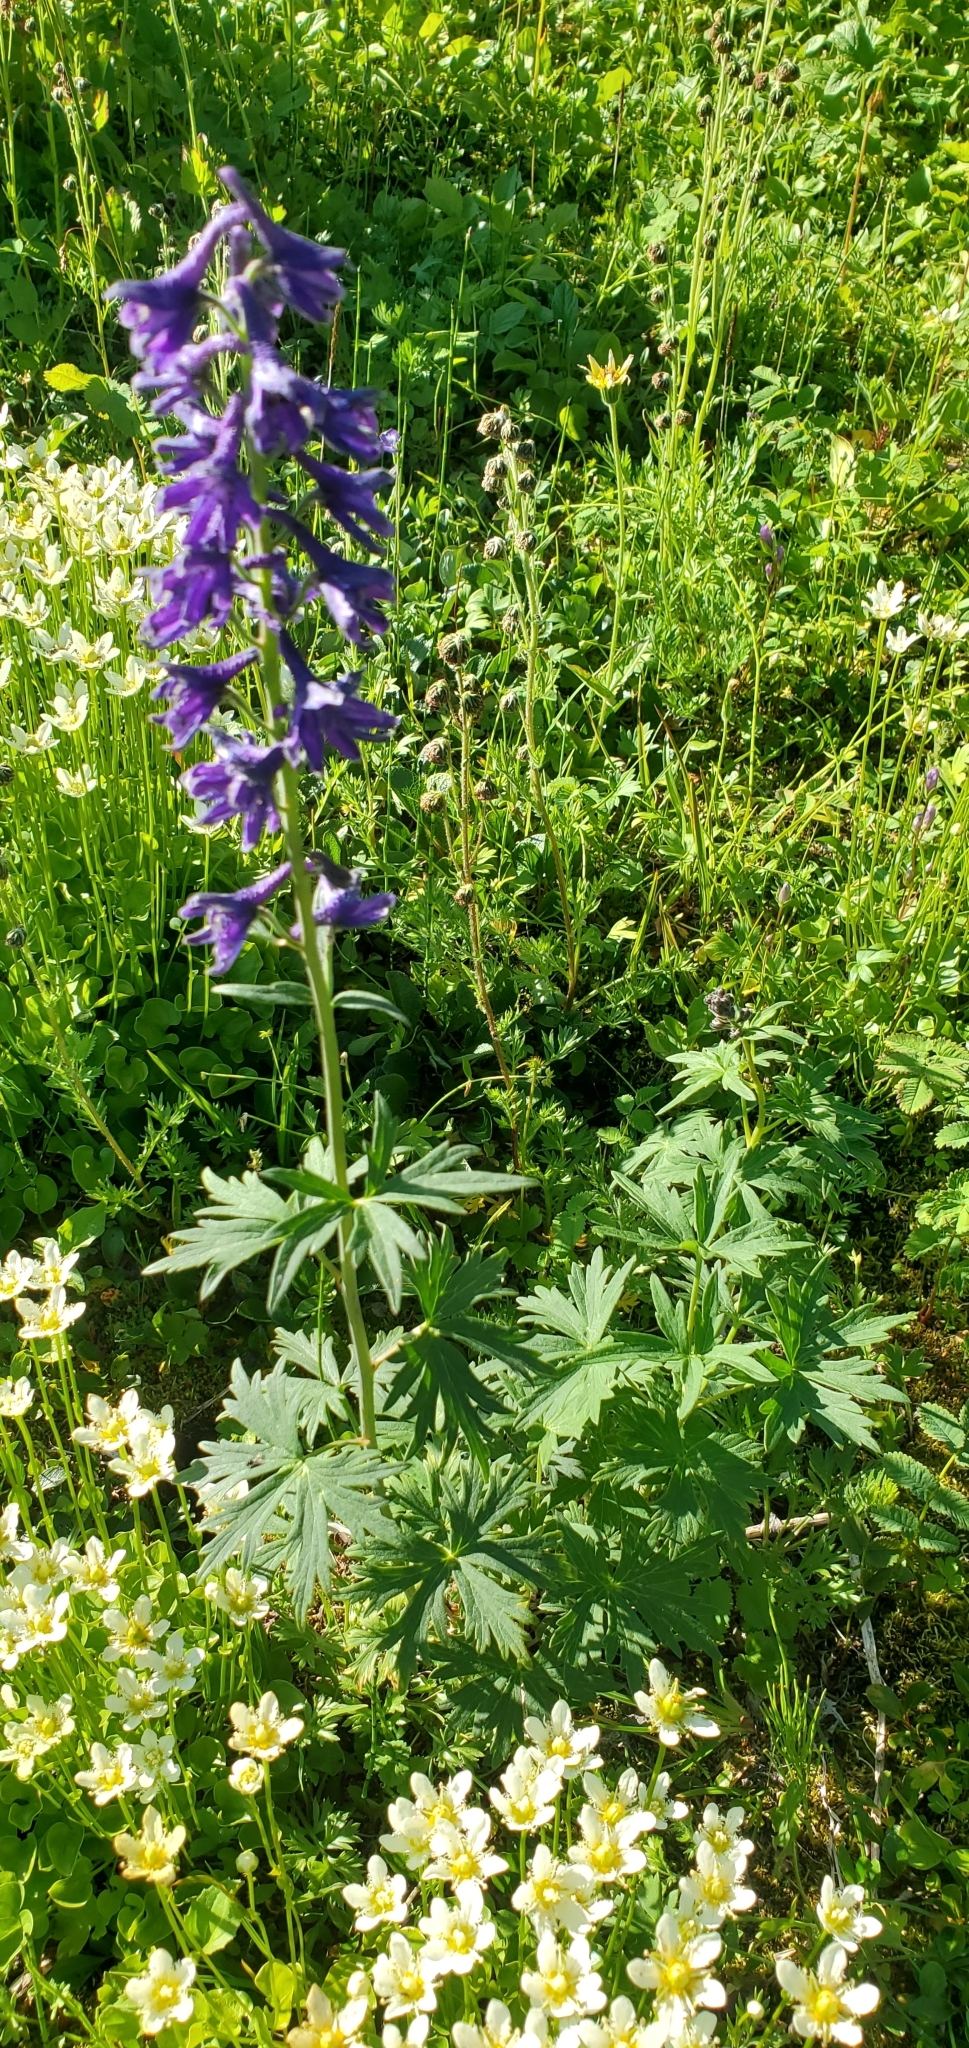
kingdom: Plantae
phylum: Tracheophyta
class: Magnoliopsida
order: Ranunculales
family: Ranunculaceae
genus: Delphinium
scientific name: Delphinium glaucum
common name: Brown's larkspur
